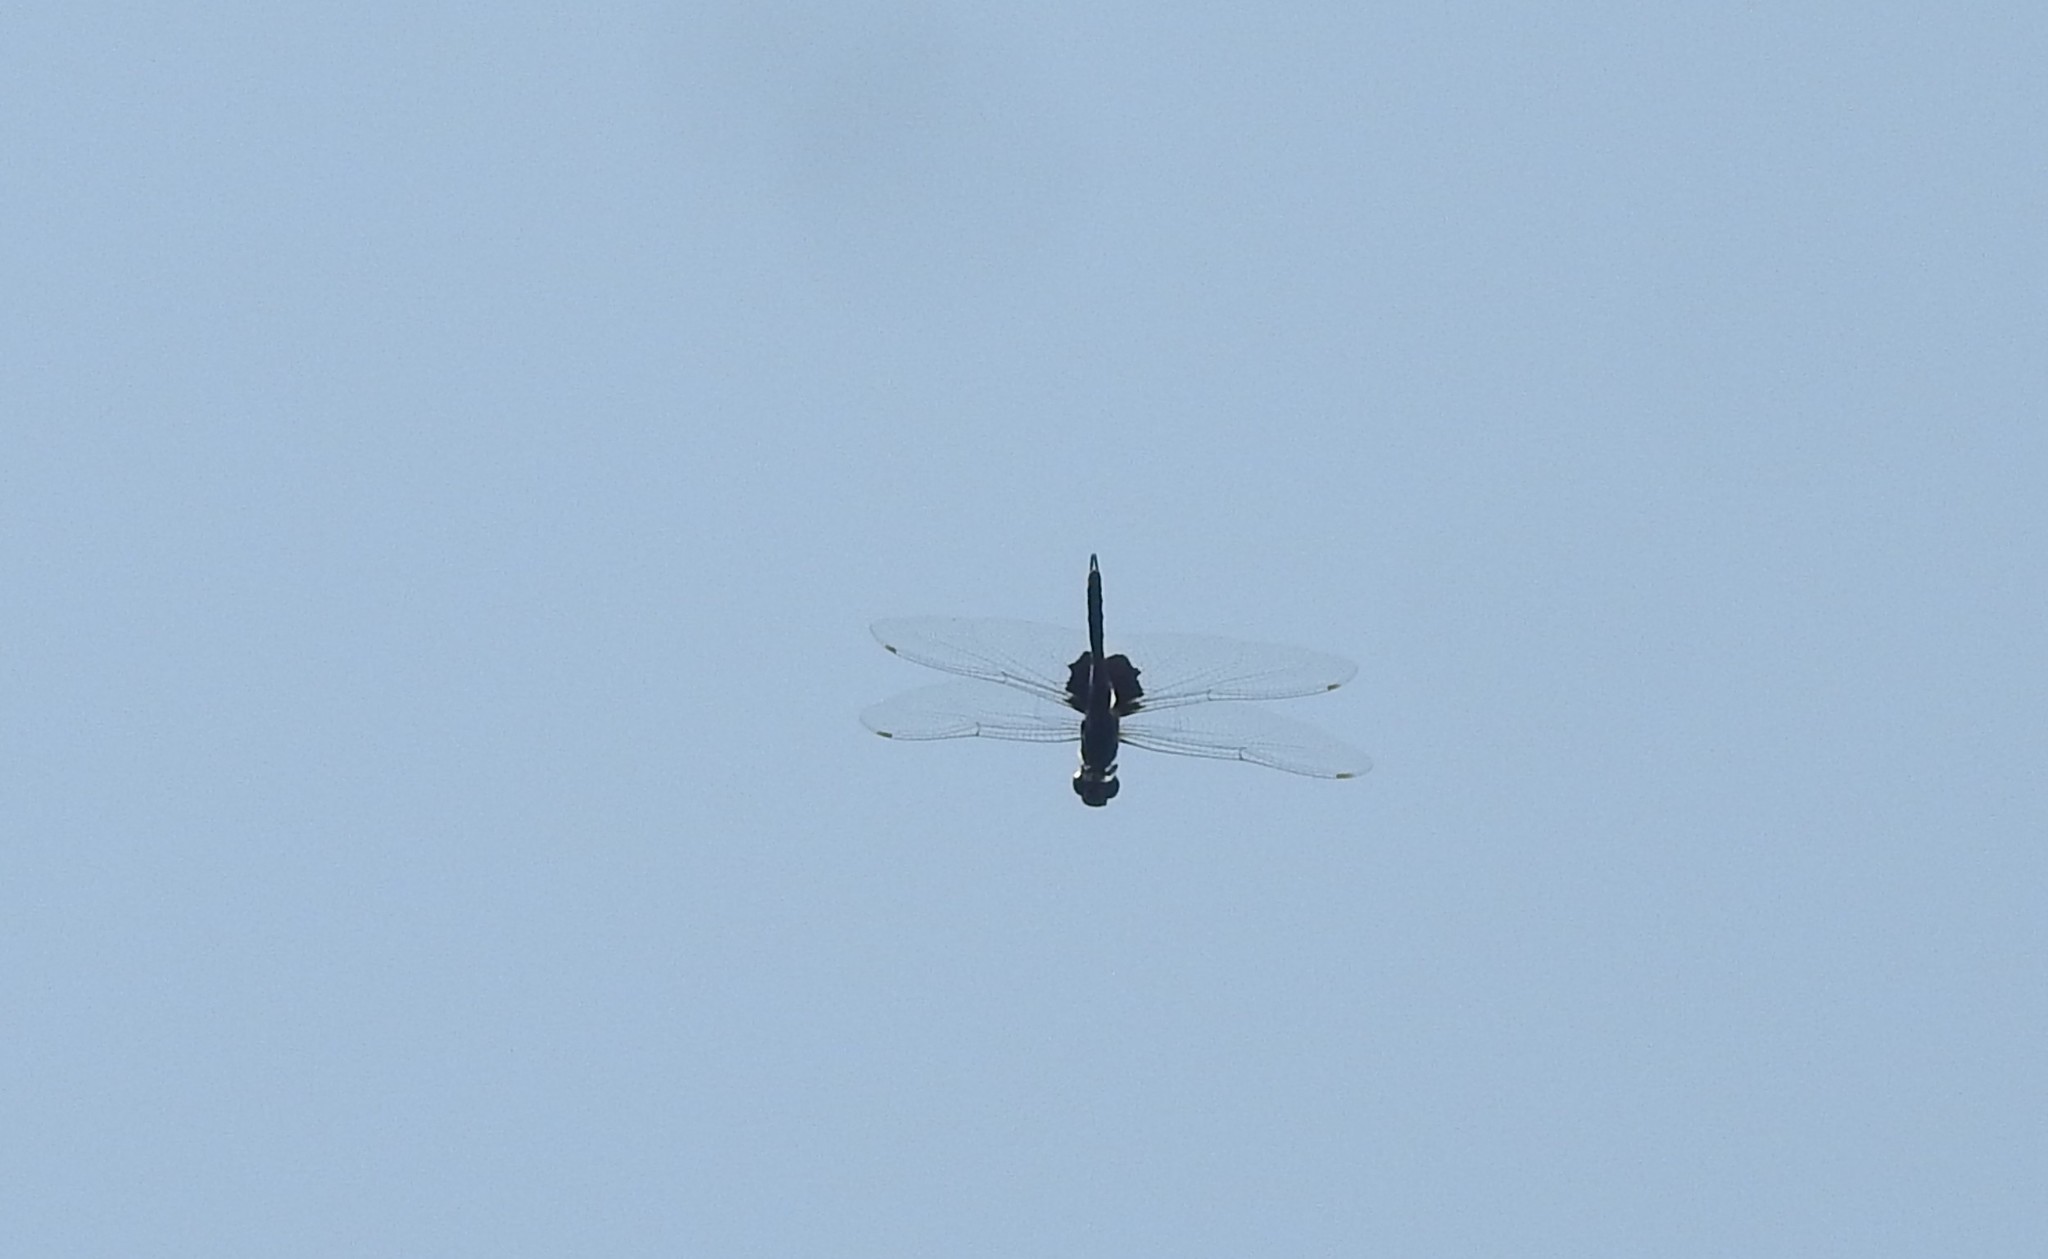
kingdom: Animalia
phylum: Arthropoda
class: Insecta
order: Odonata
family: Libellulidae
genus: Tramea
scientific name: Tramea limbata
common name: Ferruginous glider
